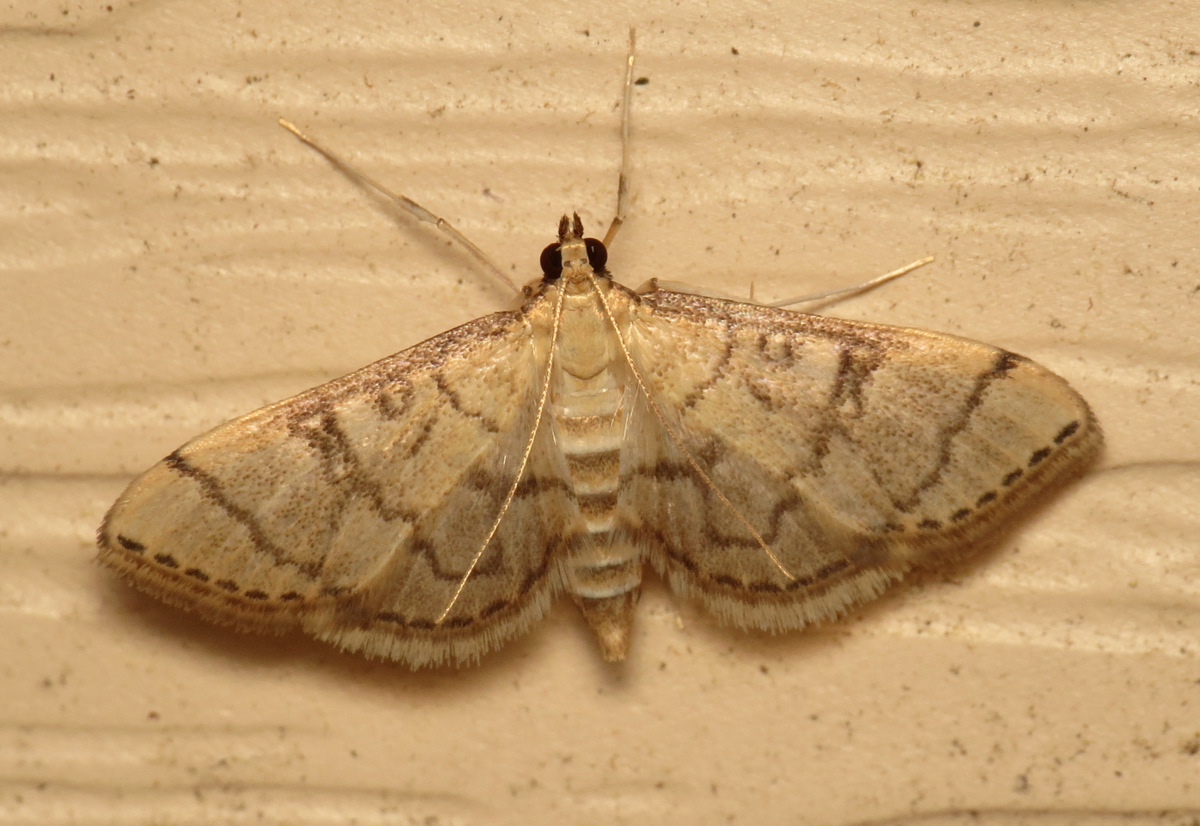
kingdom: Animalia
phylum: Arthropoda
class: Insecta
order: Lepidoptera
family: Crambidae
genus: Lamprosema
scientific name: Lamprosema Blepharomastix ranalis
